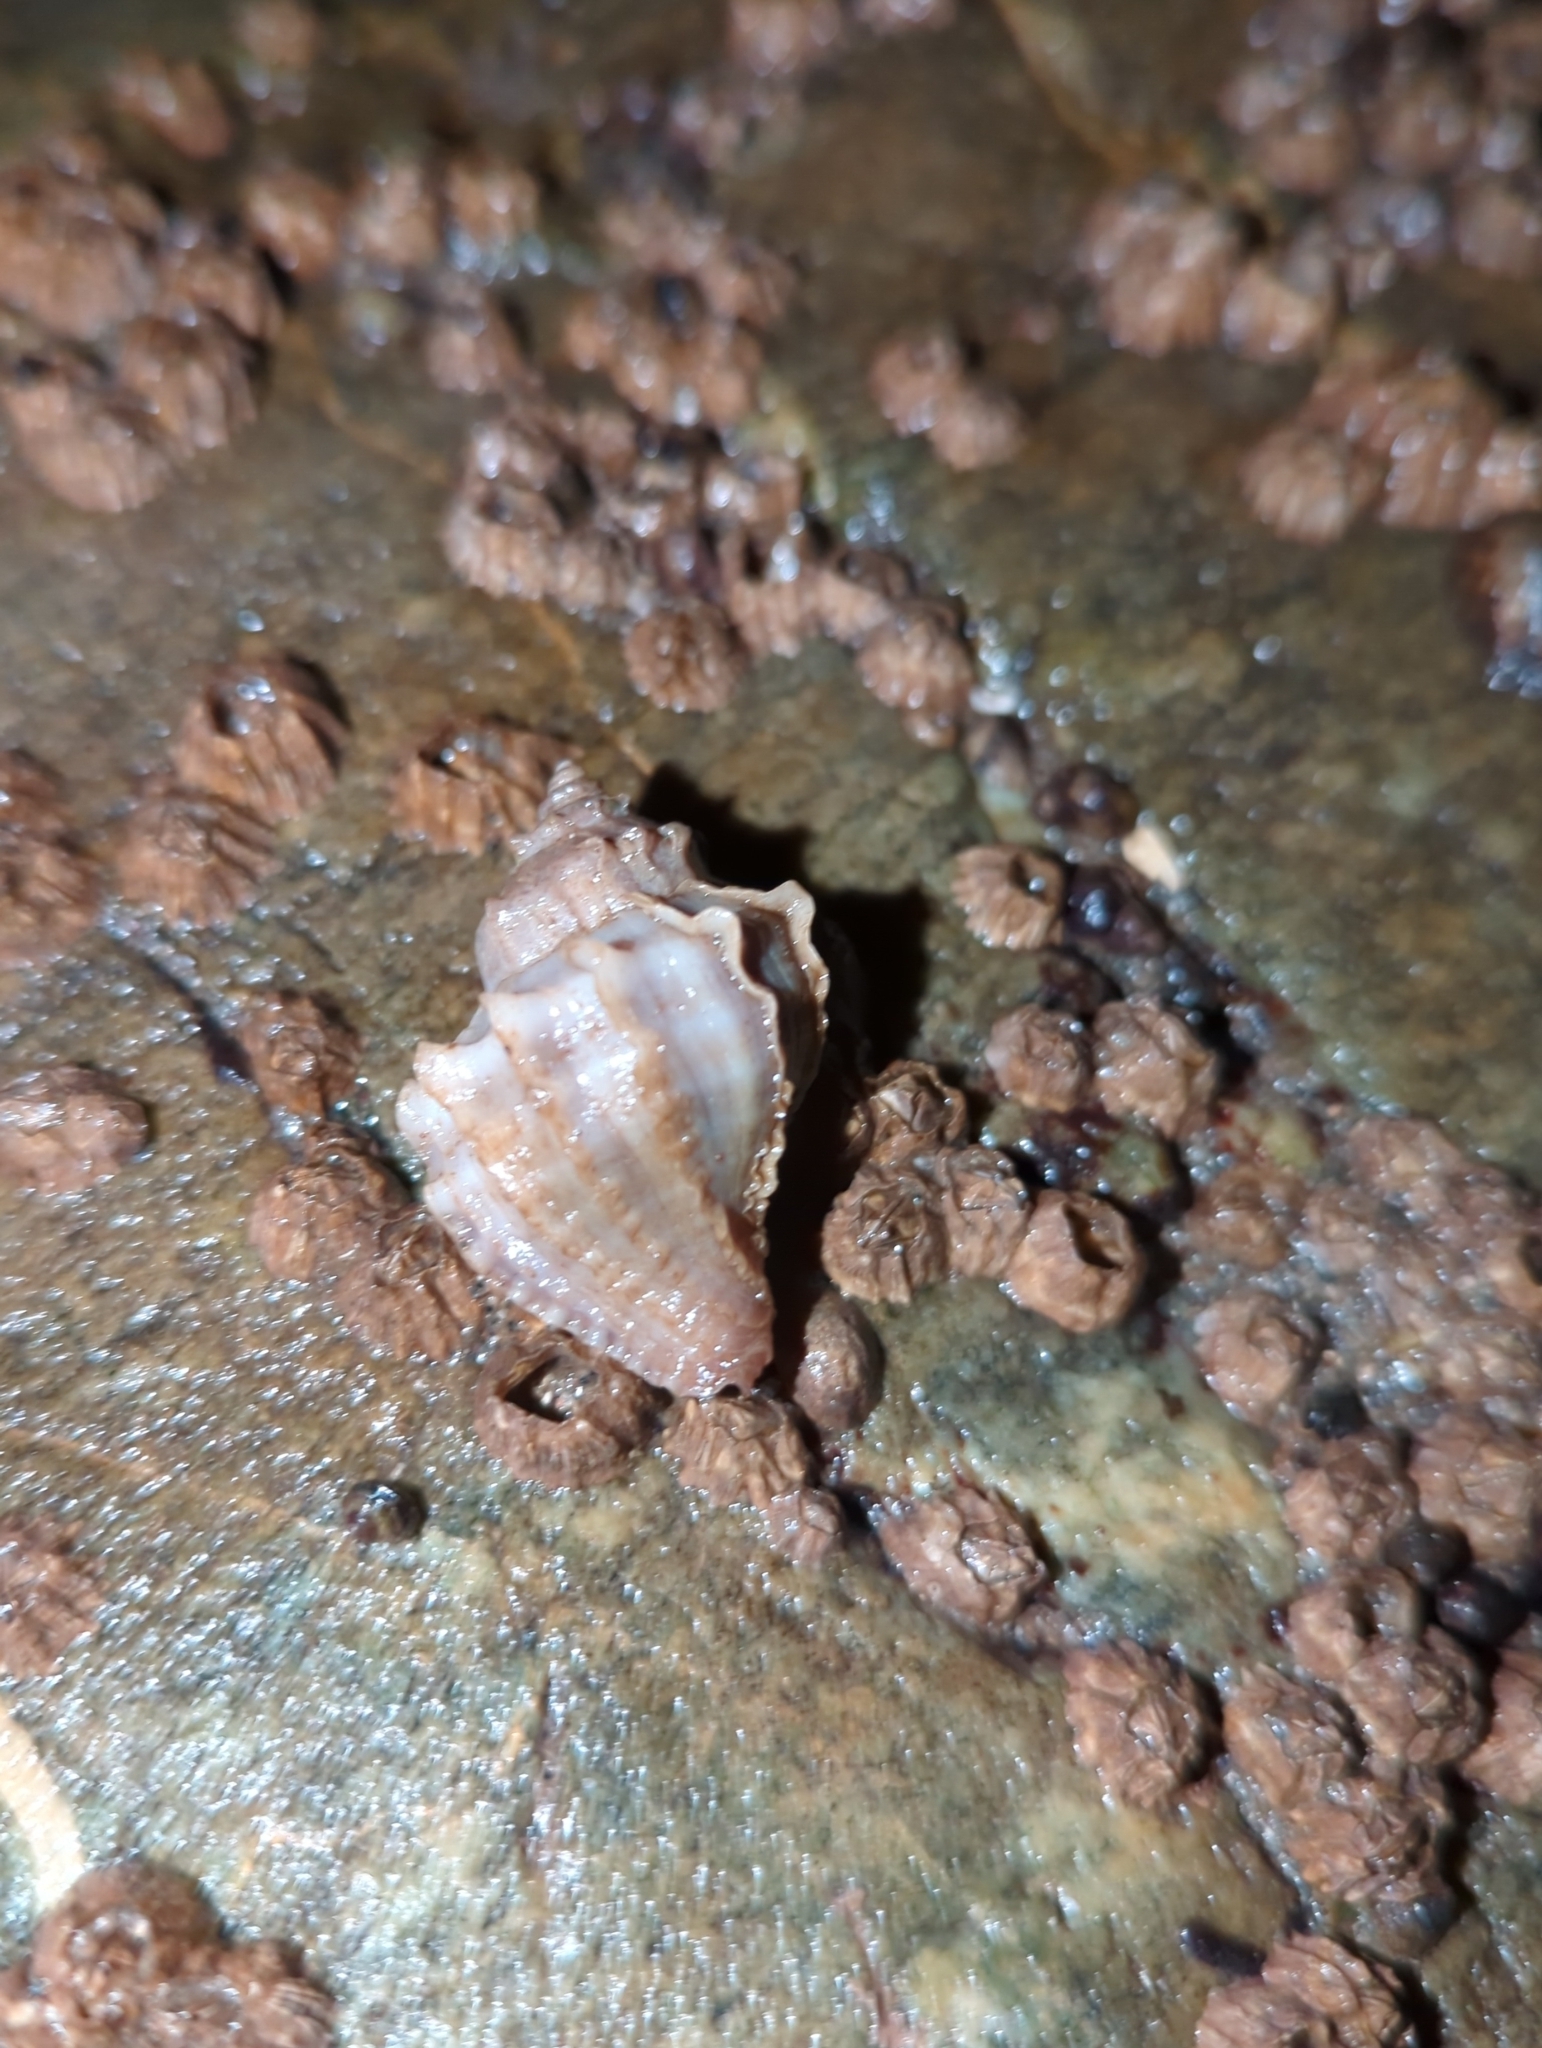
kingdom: Animalia
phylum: Mollusca
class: Gastropoda
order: Neogastropoda
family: Muricidae
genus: Nucella
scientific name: Nucella lamellosa
